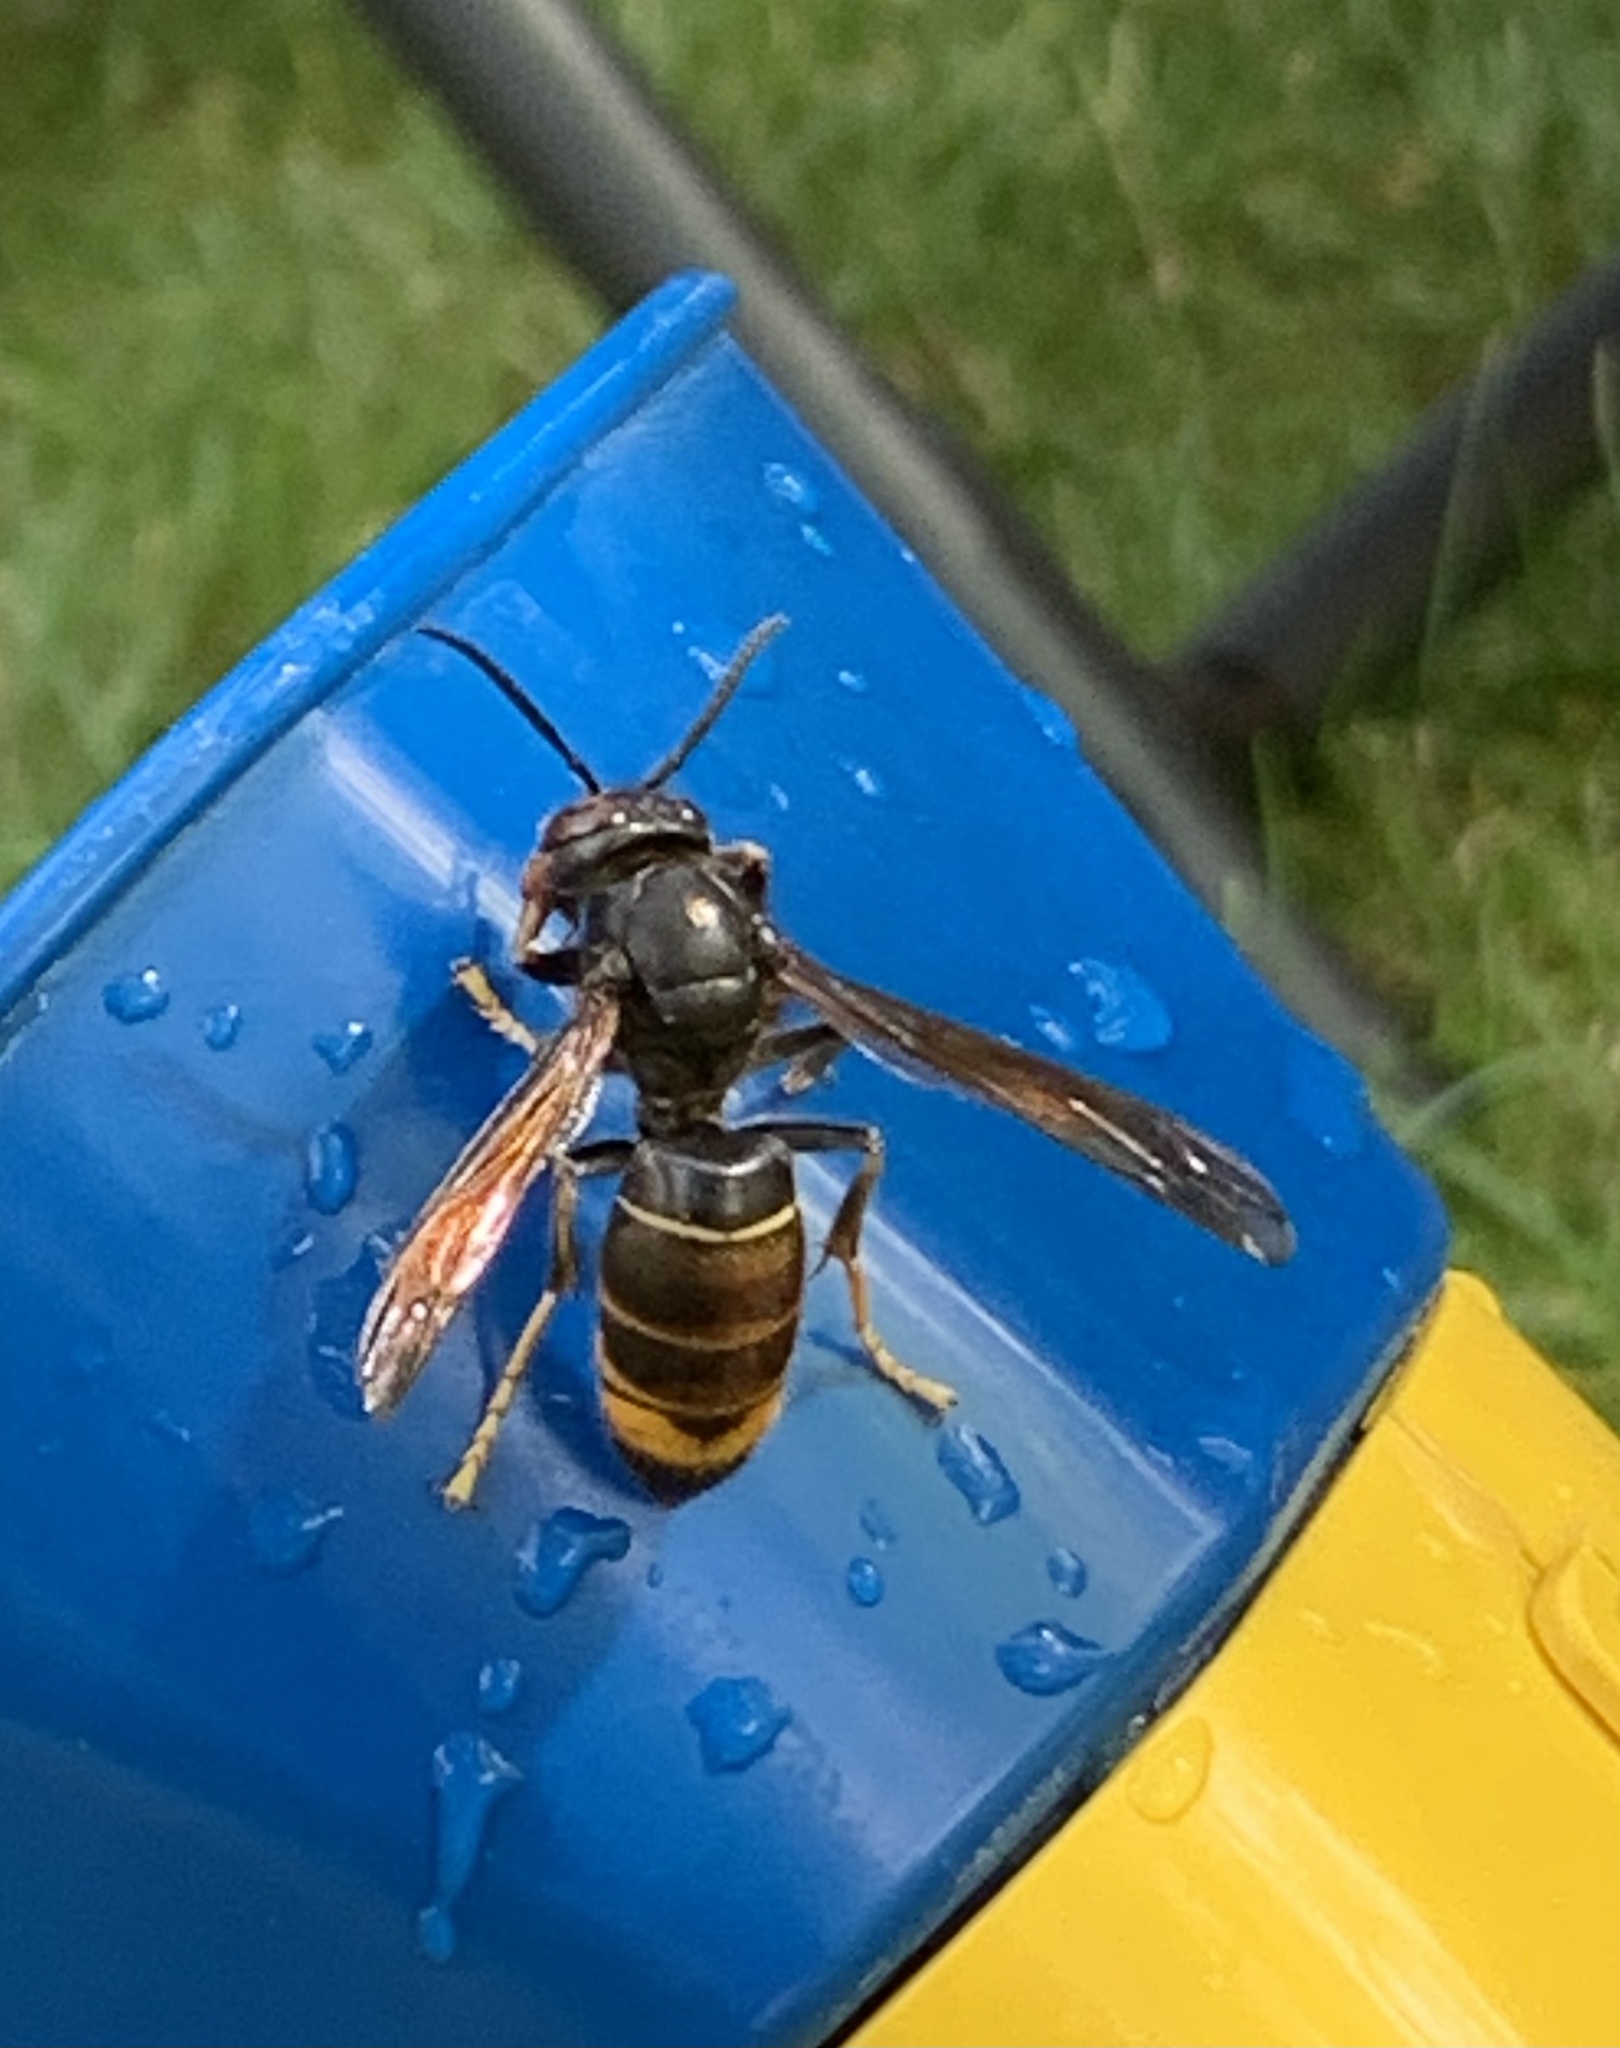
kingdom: Animalia
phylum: Arthropoda
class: Insecta
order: Hymenoptera
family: Vespidae
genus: Vespa
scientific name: Vespa velutina
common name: Asian hornet
